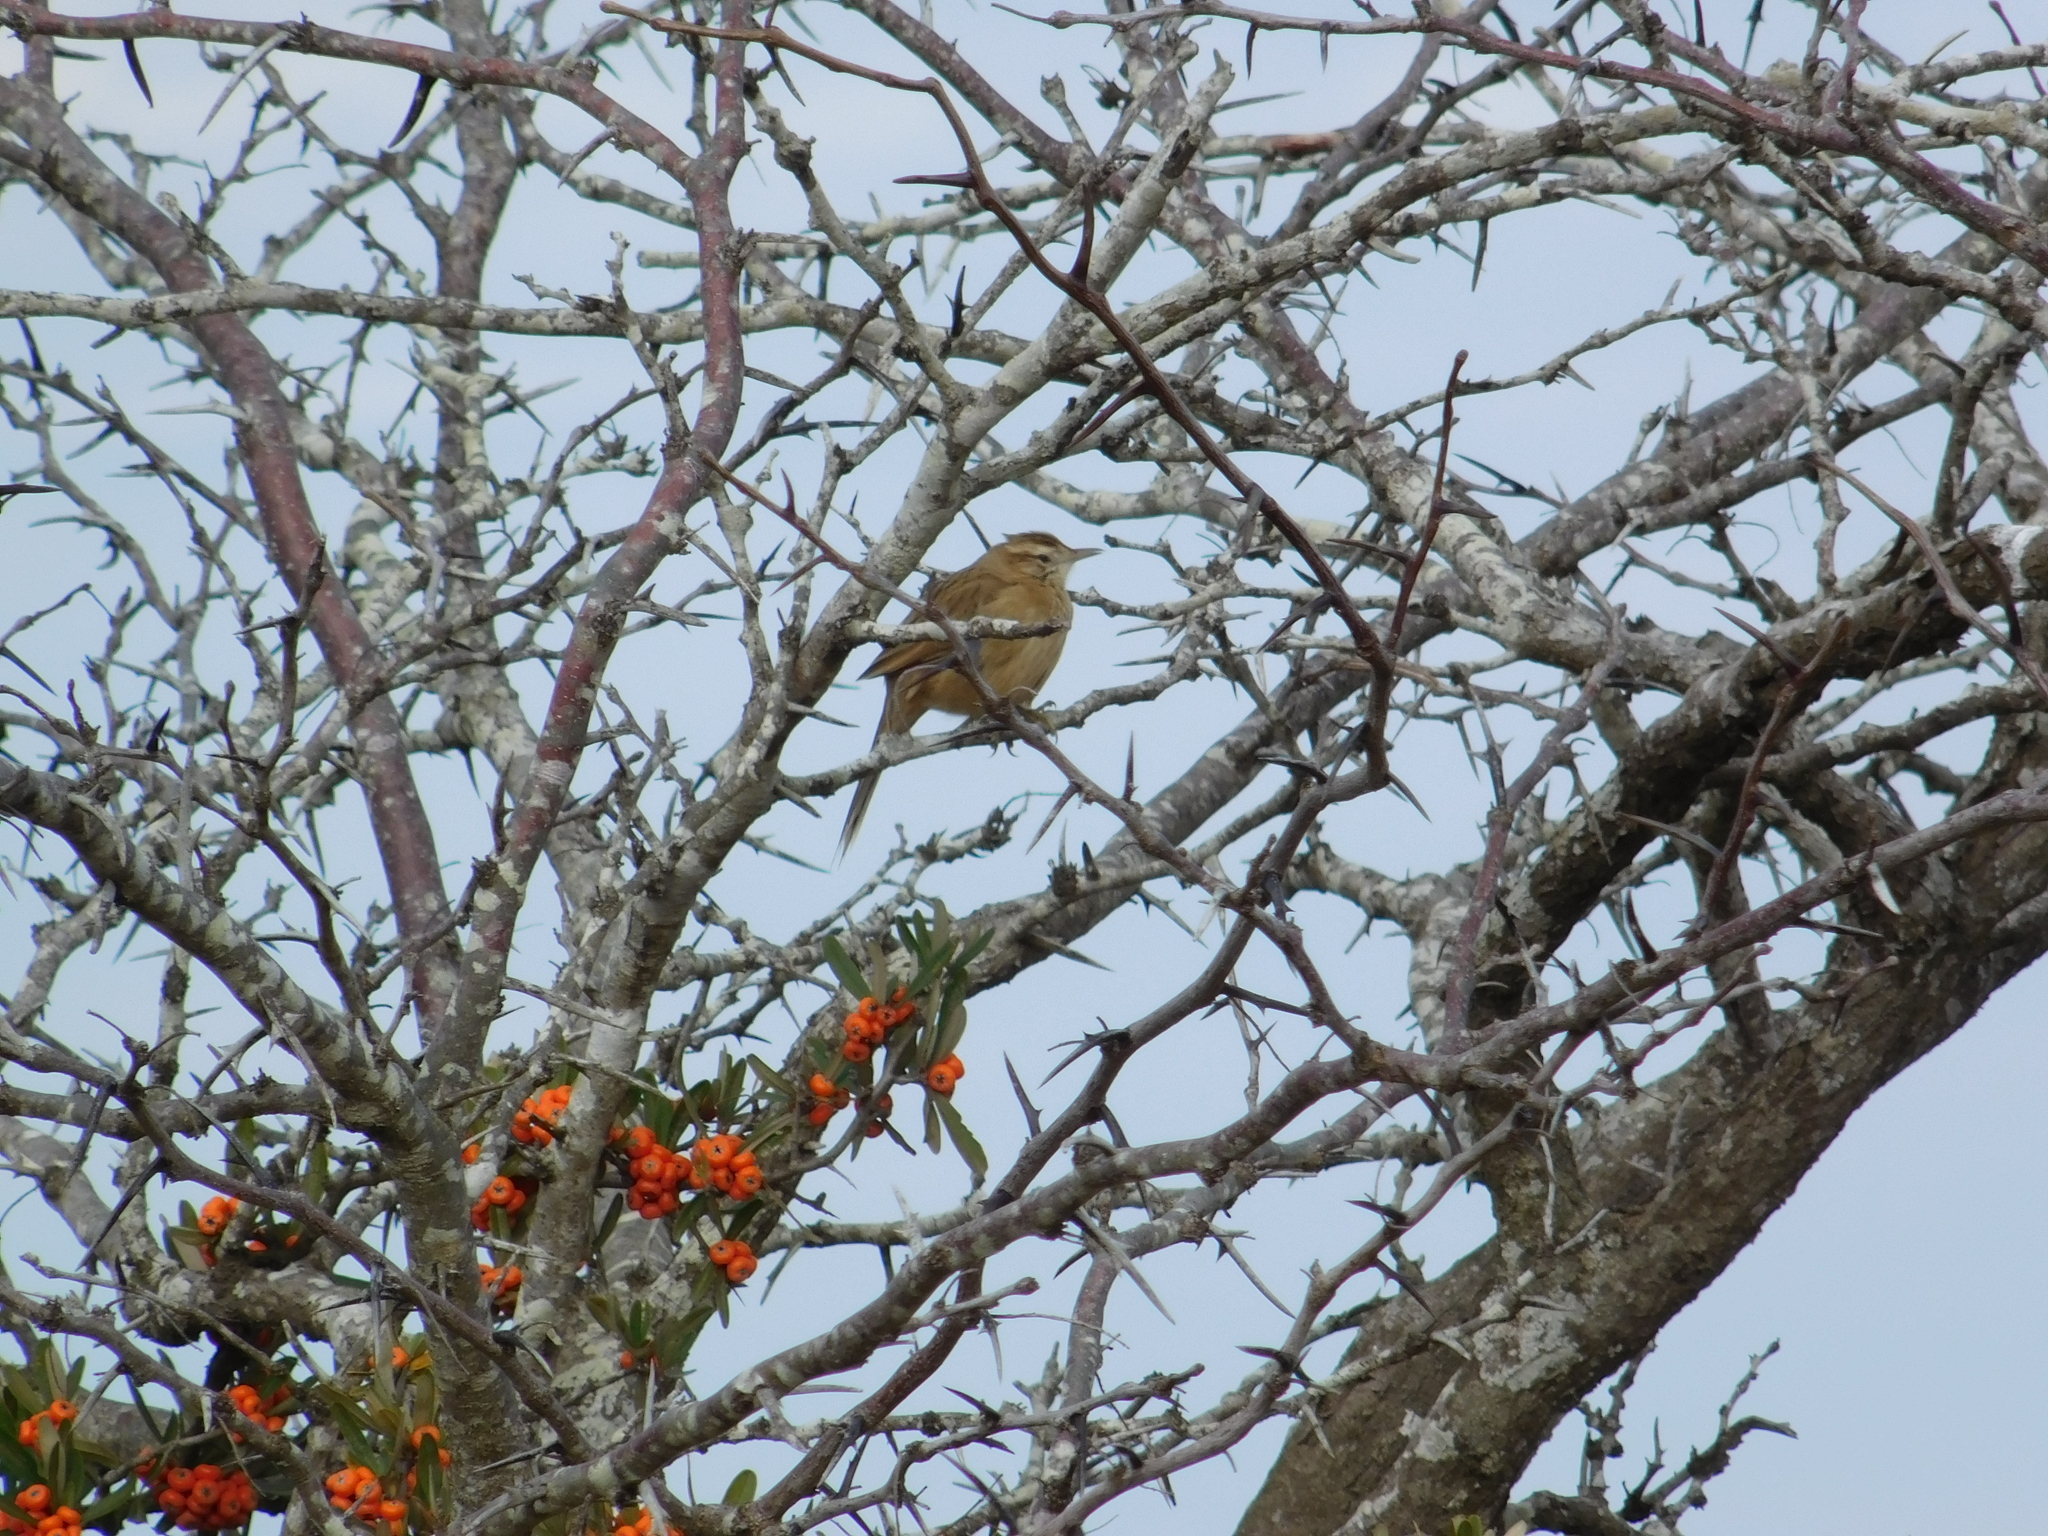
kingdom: Animalia
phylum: Chordata
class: Aves
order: Passeriformes
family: Furnariidae
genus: Anumbius
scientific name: Anumbius annumbi
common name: Firewood-gatherer
